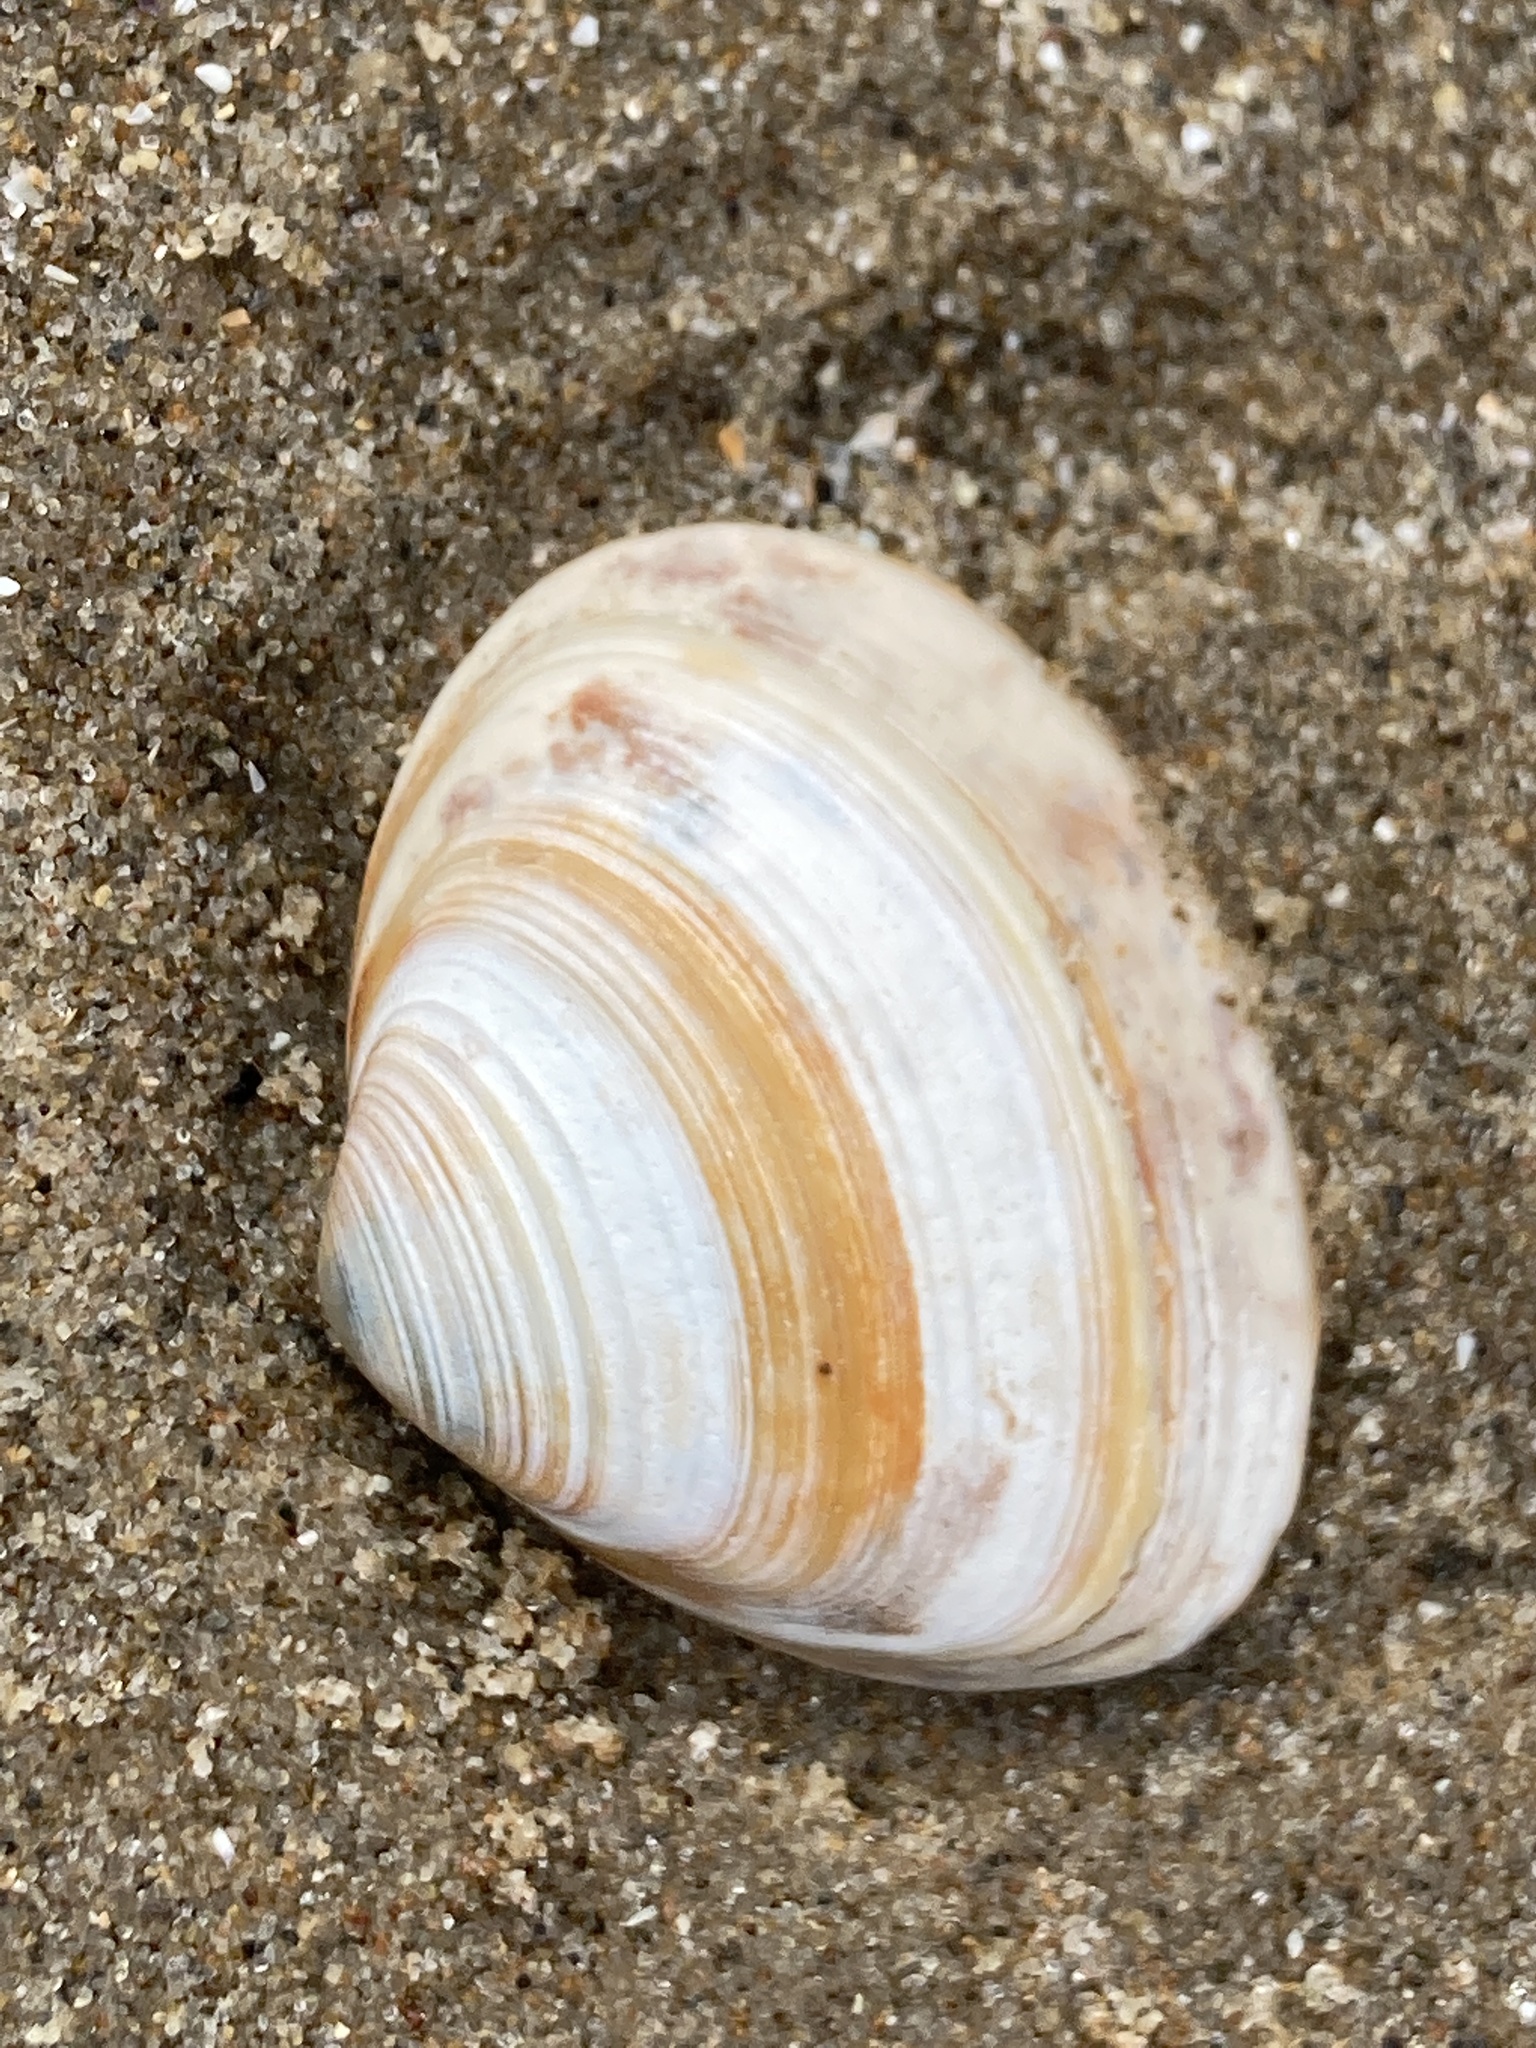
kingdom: Animalia
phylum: Mollusca
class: Bivalvia
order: Venerida
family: Mactridae
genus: Spisula
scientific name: Spisula solida
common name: Thick trough shell
